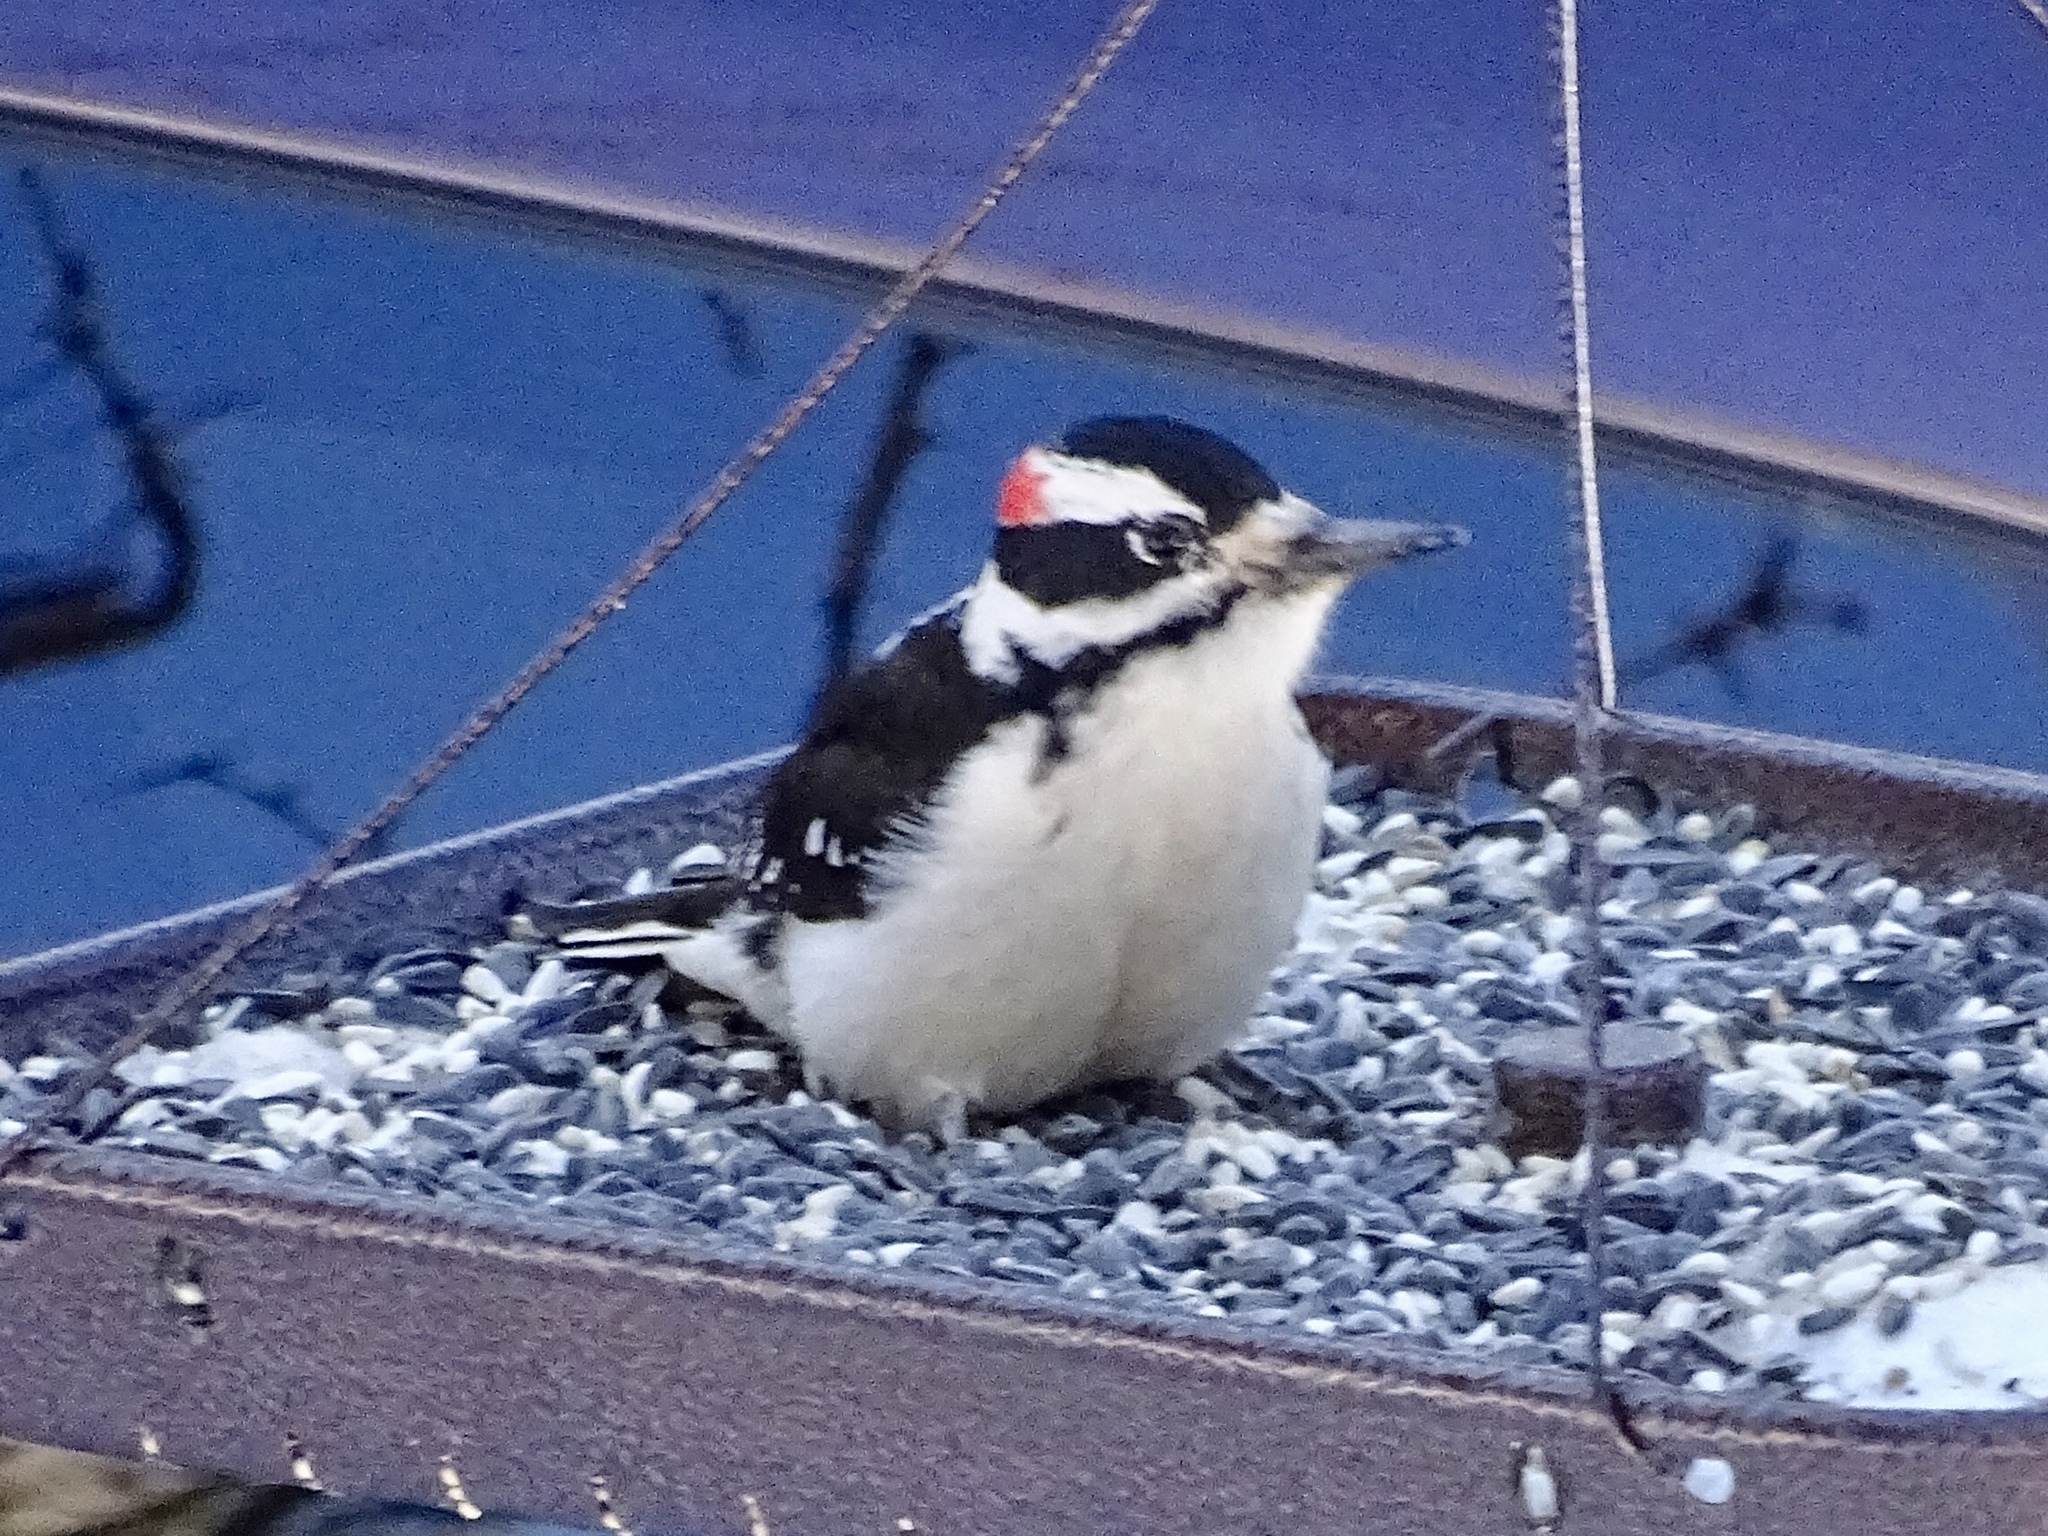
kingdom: Animalia
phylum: Chordata
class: Aves
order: Piciformes
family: Picidae
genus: Leuconotopicus
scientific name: Leuconotopicus villosus
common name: Hairy woodpecker
